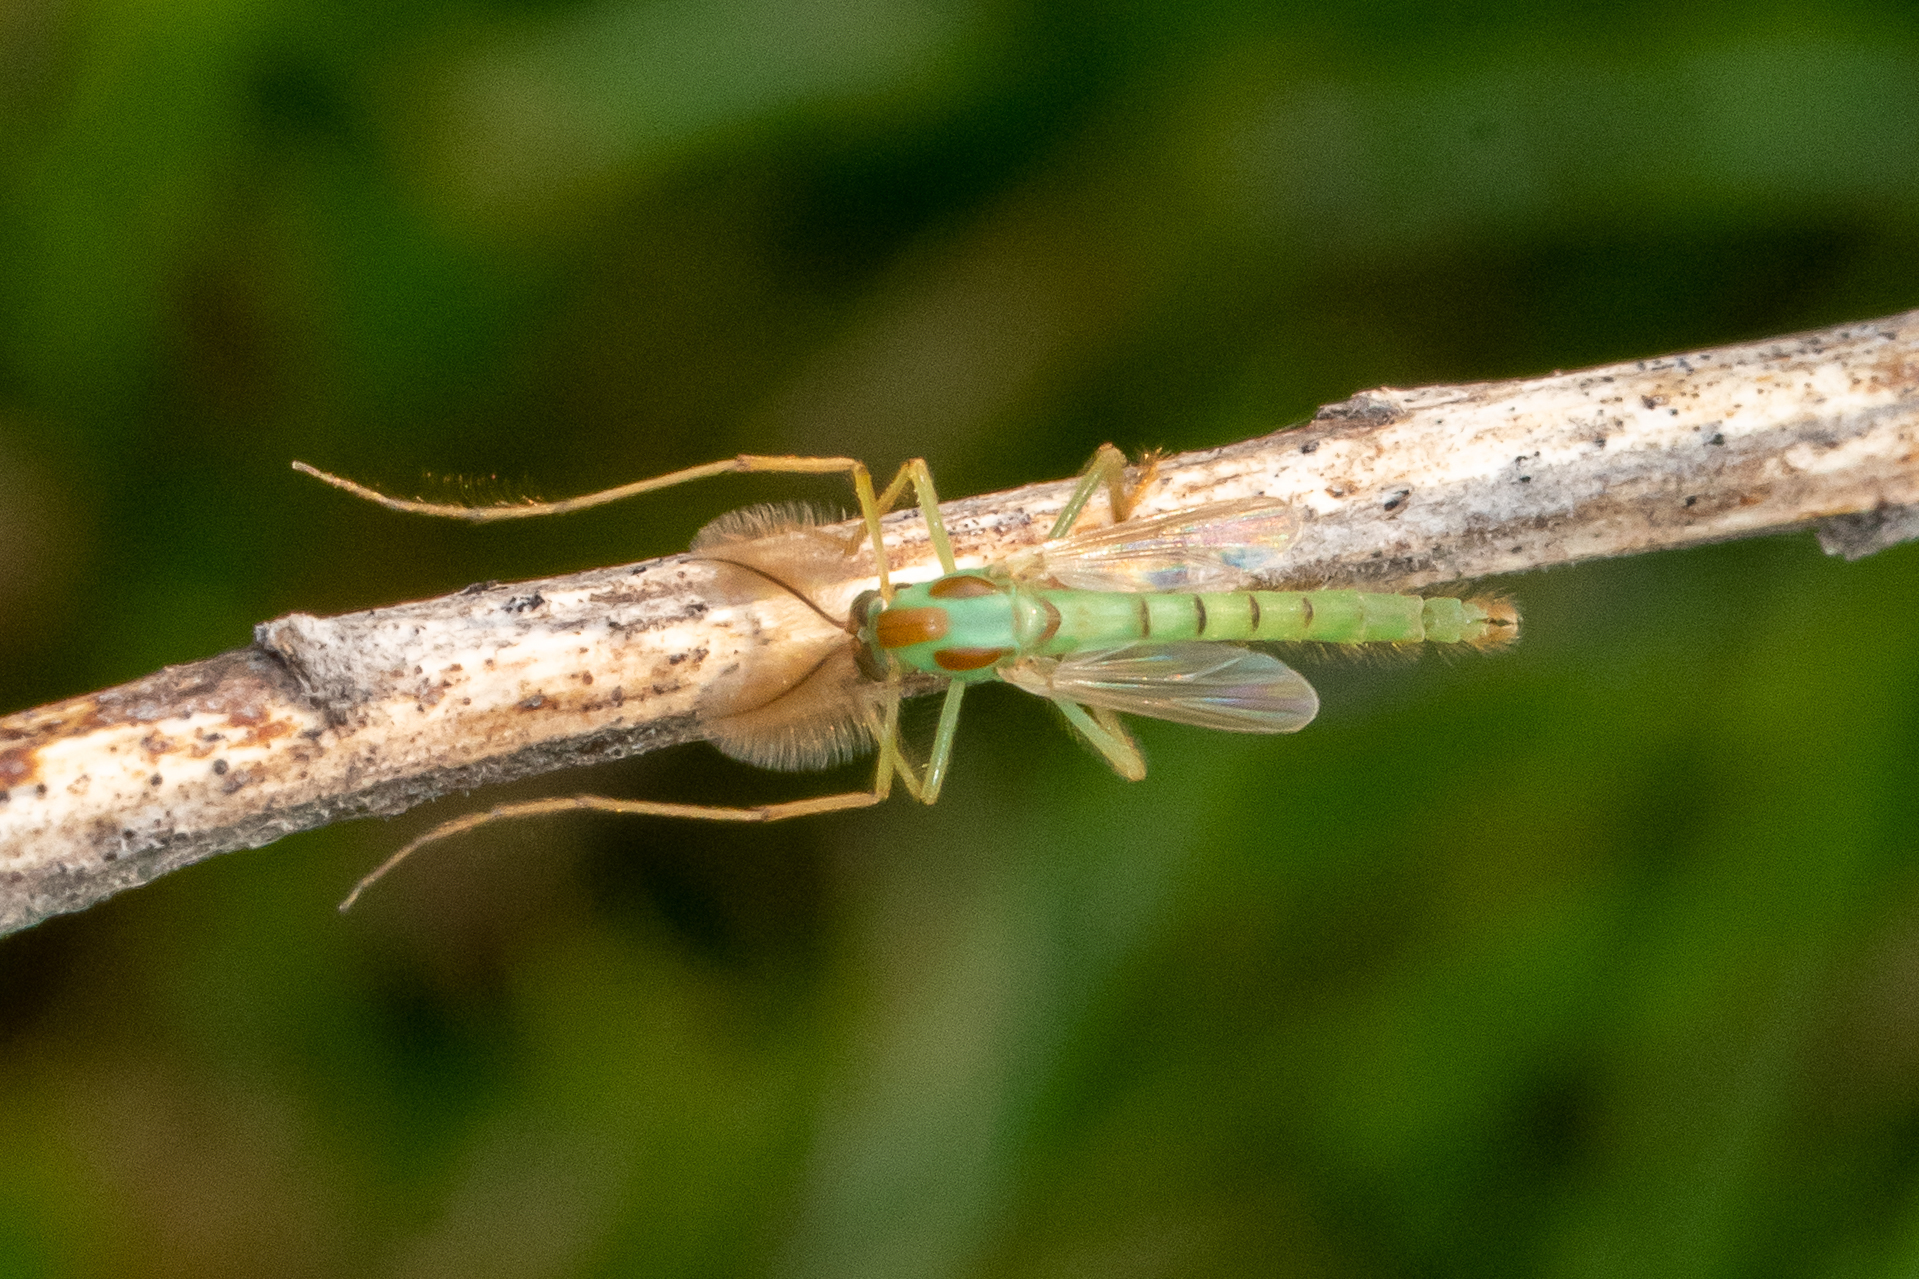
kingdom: Animalia
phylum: Arthropoda
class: Insecta
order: Diptera
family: Chironomidae
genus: Axarus
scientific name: Axarus
